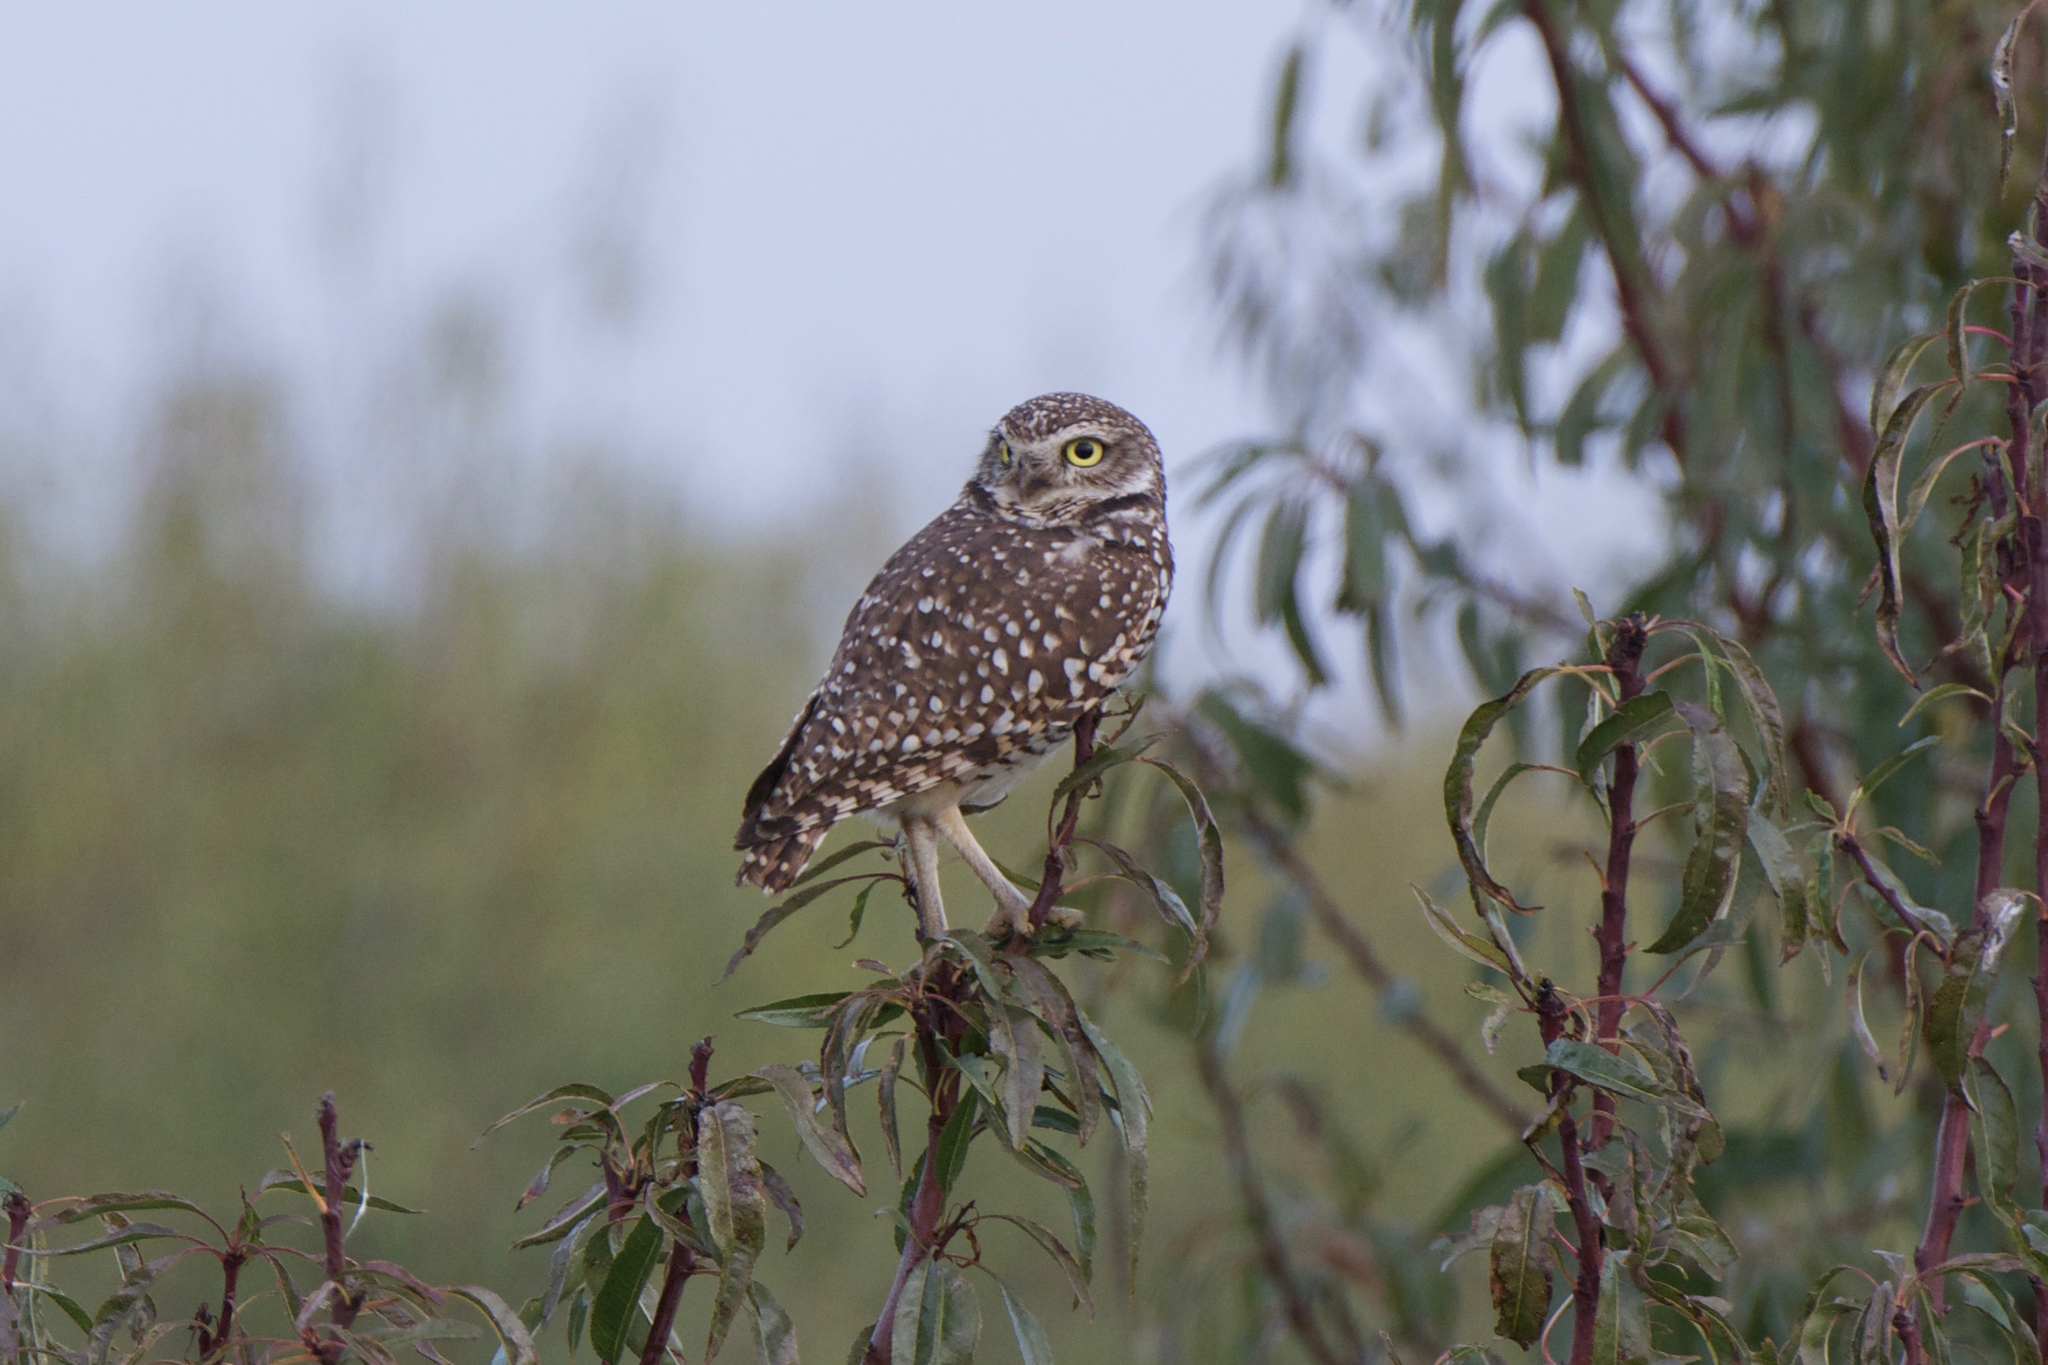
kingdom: Animalia
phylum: Chordata
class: Aves
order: Strigiformes
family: Strigidae
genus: Athene
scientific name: Athene cunicularia
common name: Burrowing owl
